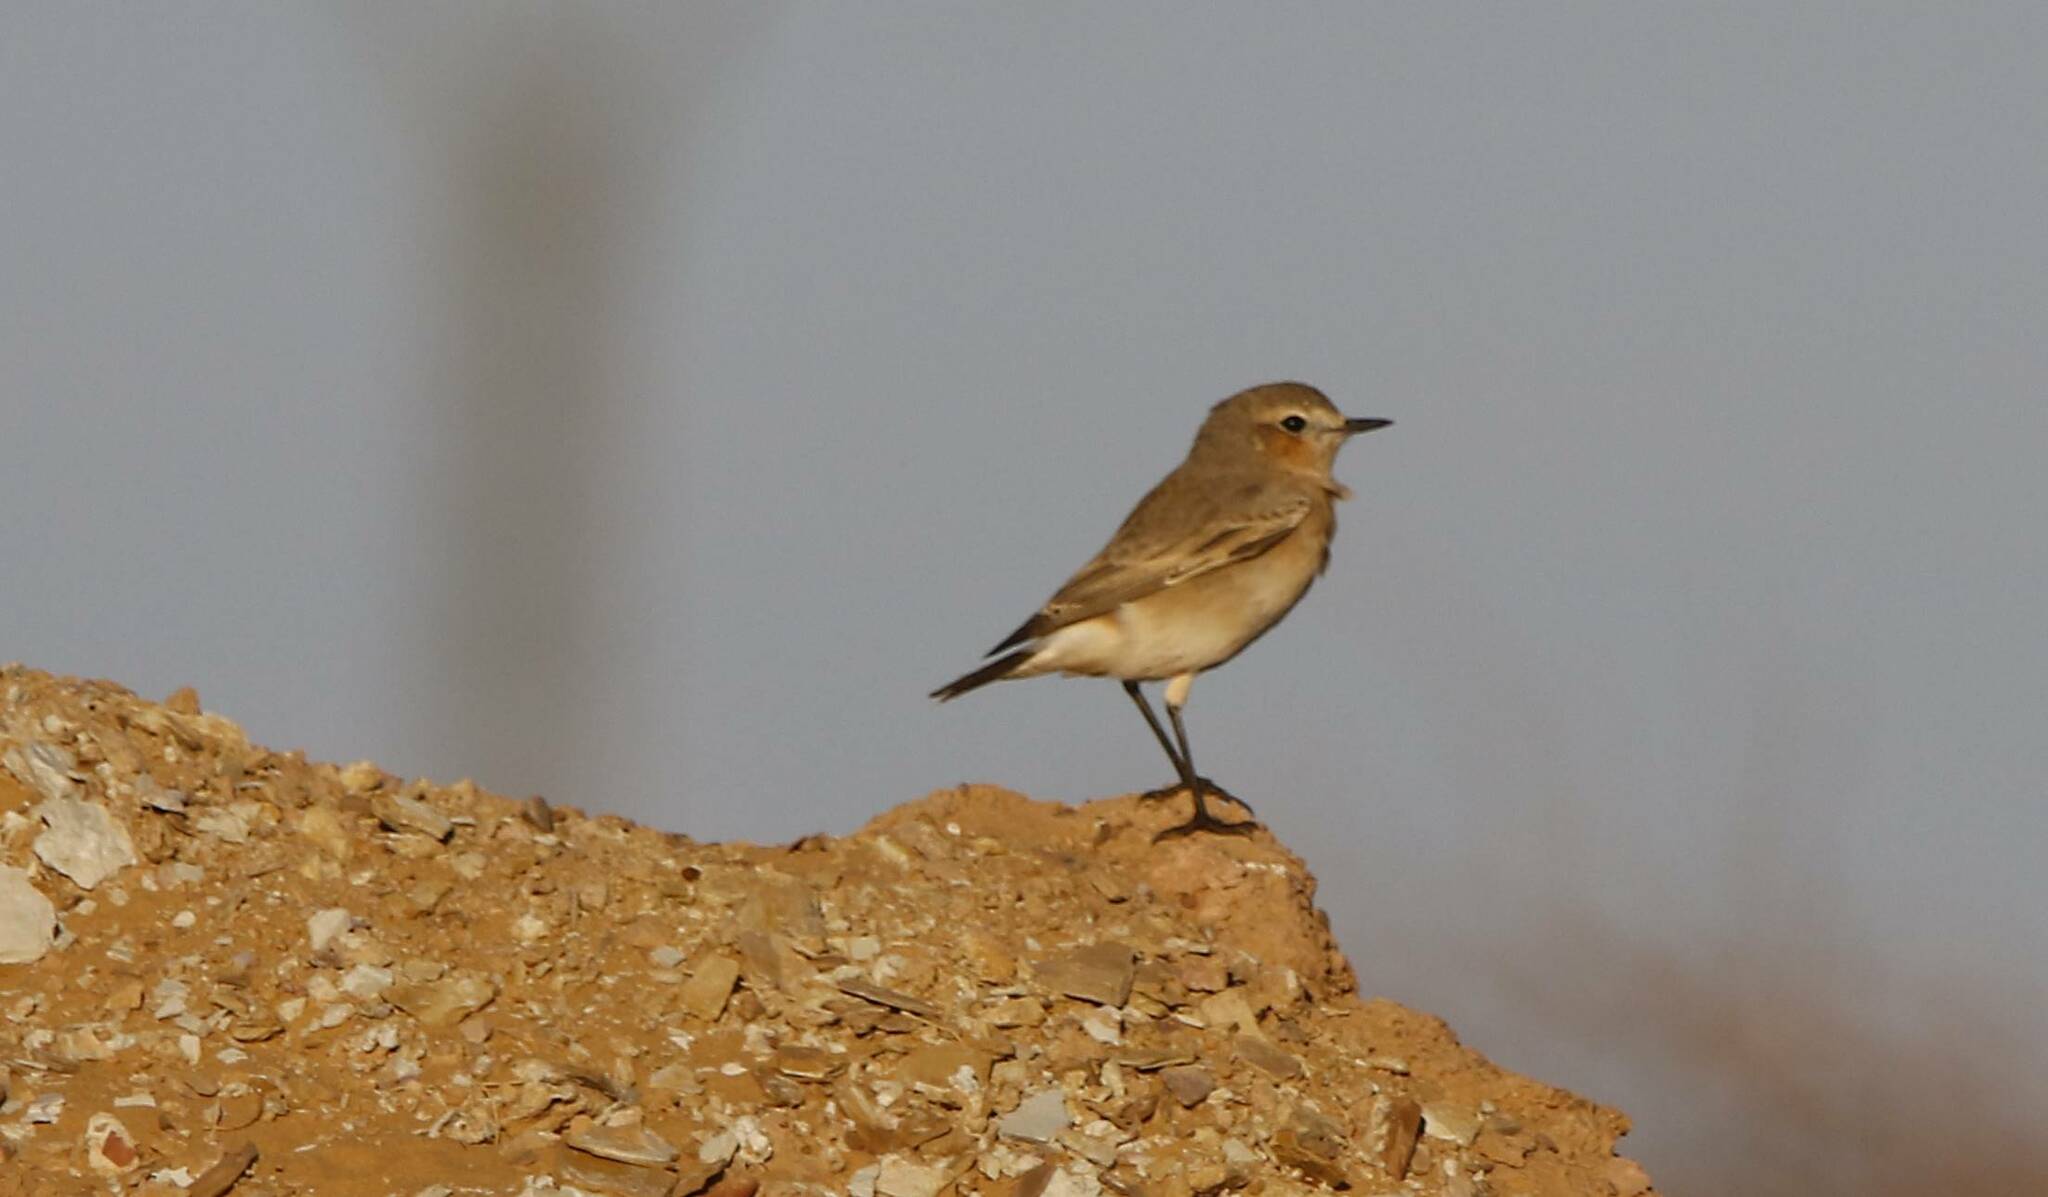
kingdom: Animalia
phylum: Chordata
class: Aves
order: Passeriformes
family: Muscicapidae
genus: Oenanthe
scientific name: Oenanthe isabellina
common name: Isabelline wheatear
